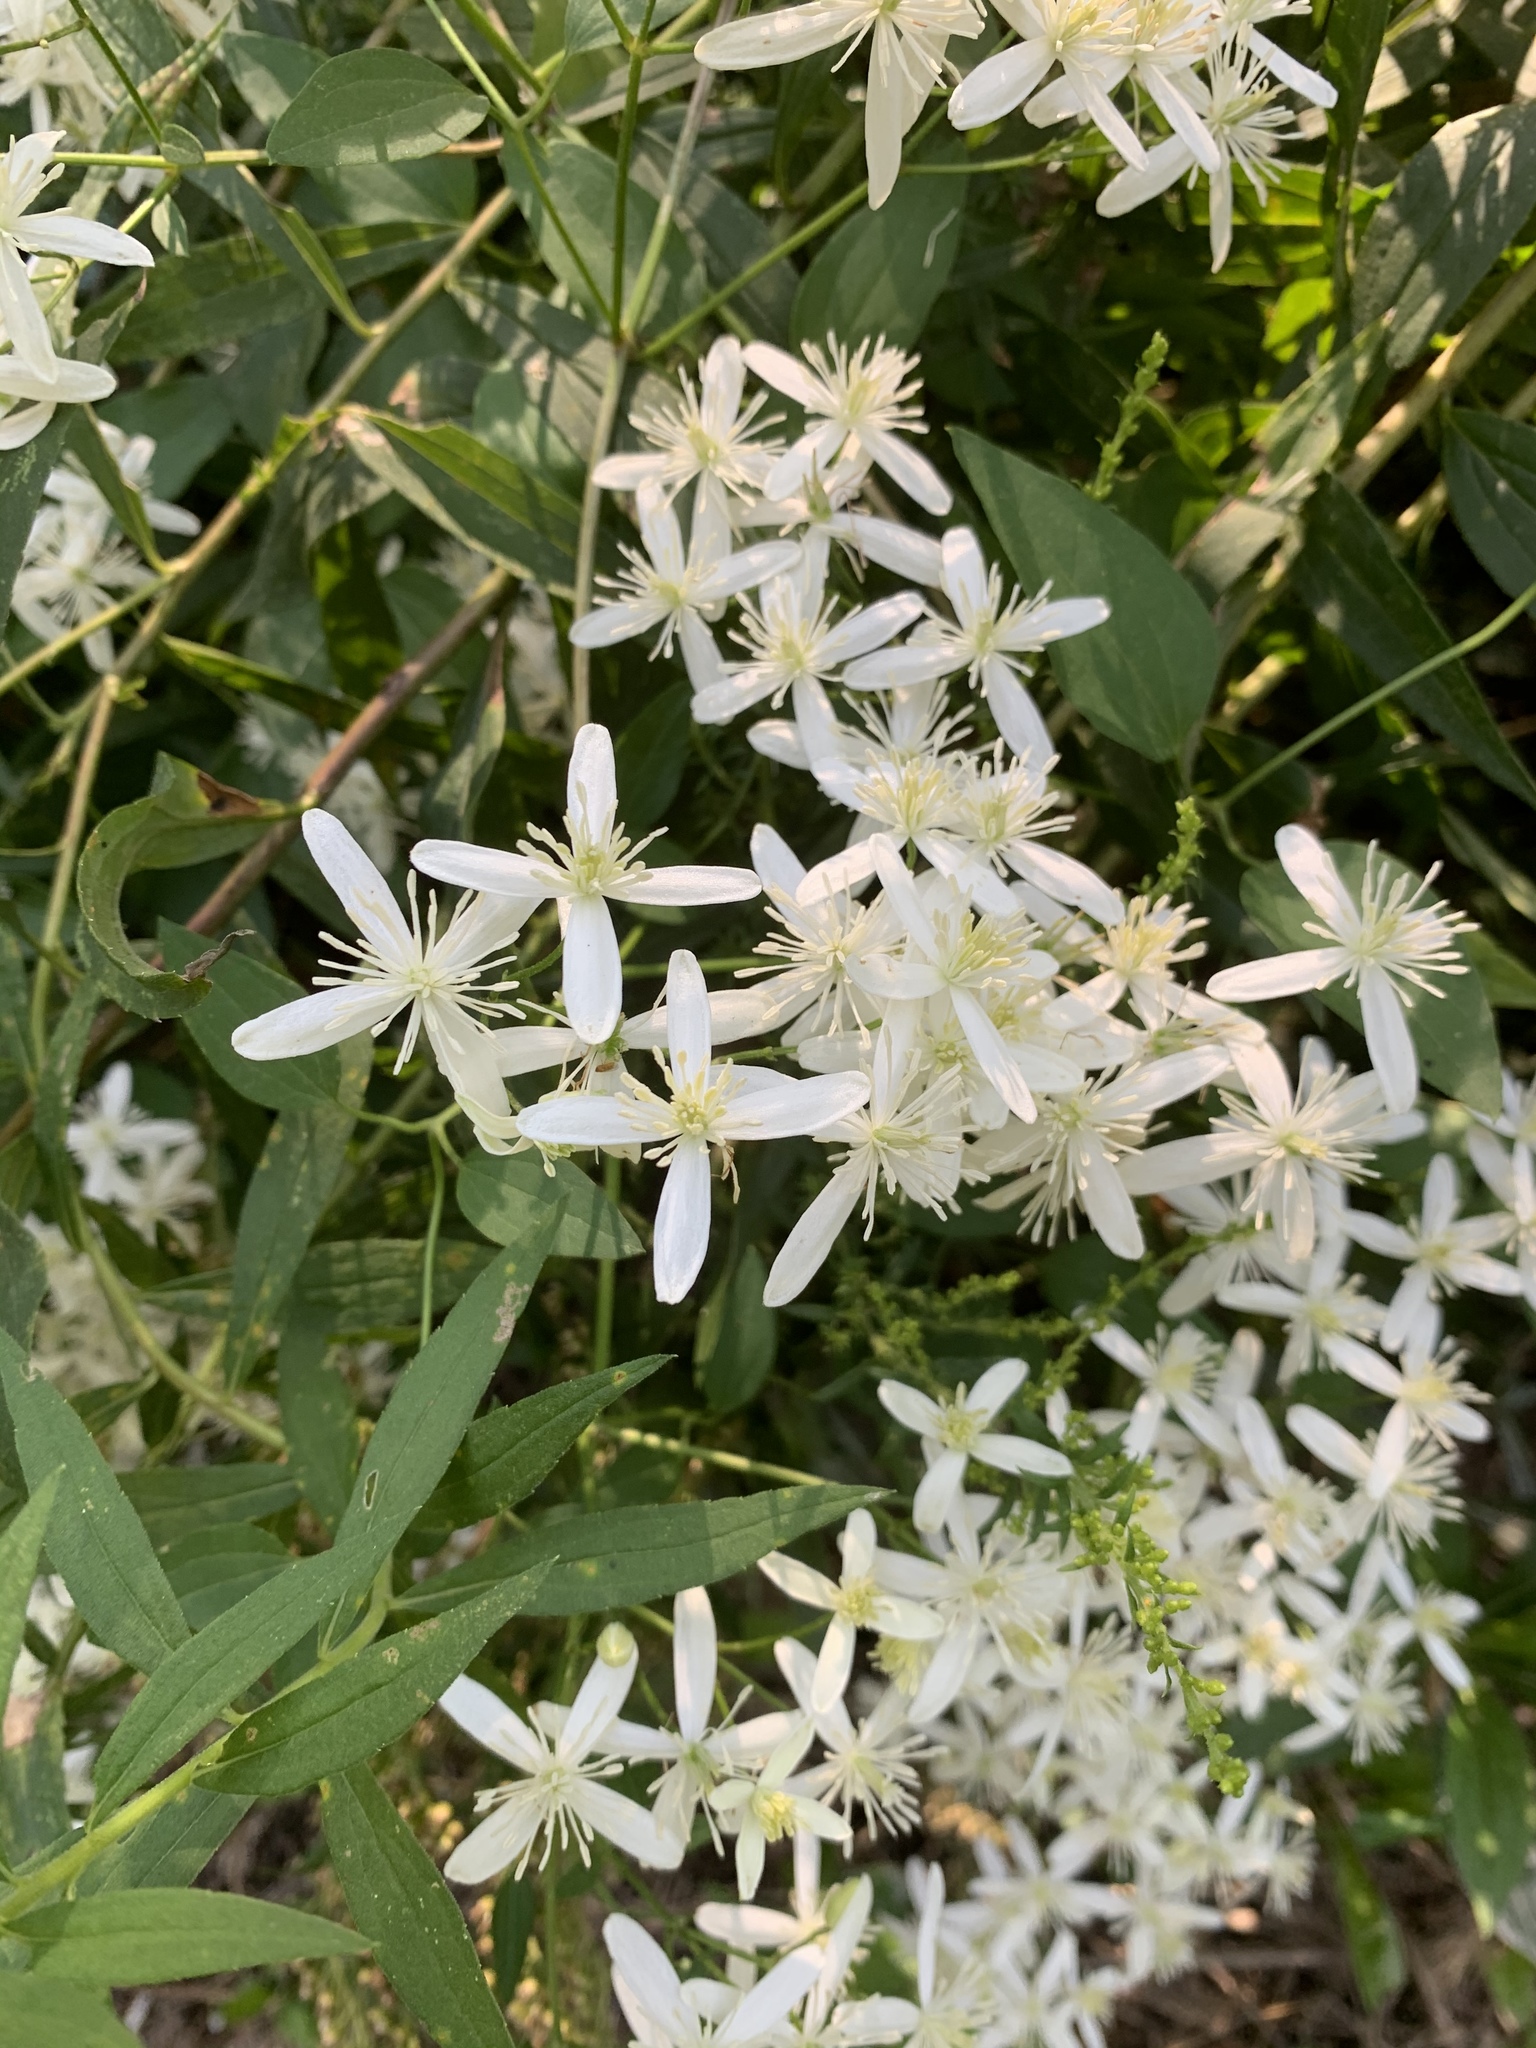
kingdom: Plantae
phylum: Tracheophyta
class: Magnoliopsida
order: Ranunculales
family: Ranunculaceae
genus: Clematis
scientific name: Clematis terniflora
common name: Sweet autumn clematis
